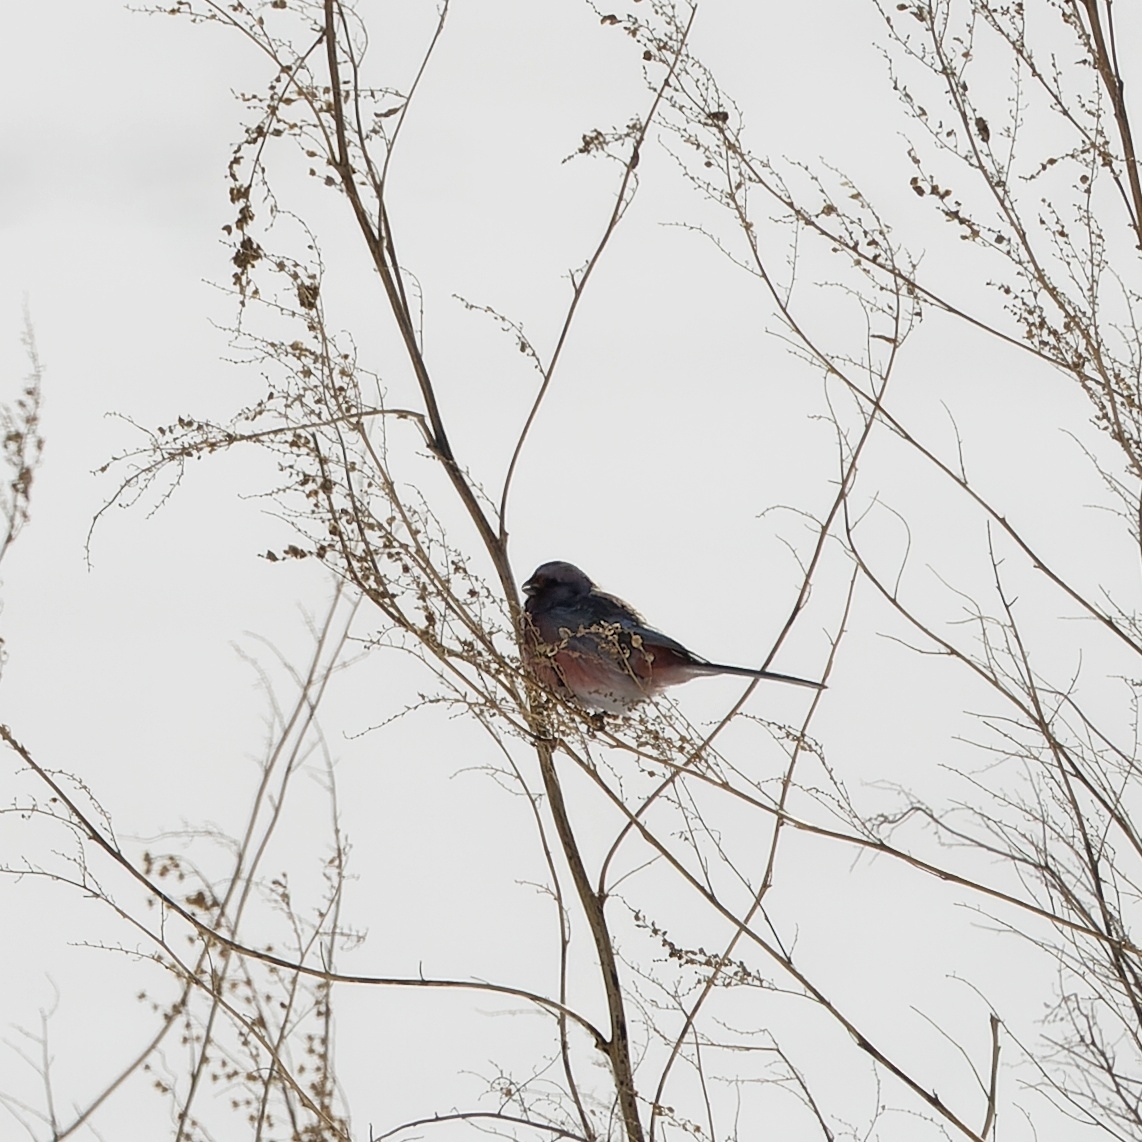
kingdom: Animalia
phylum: Chordata
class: Aves
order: Passeriformes
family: Fringillidae
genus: Carpodacus
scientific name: Carpodacus sibiricus
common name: Long-tailed rosefinch
